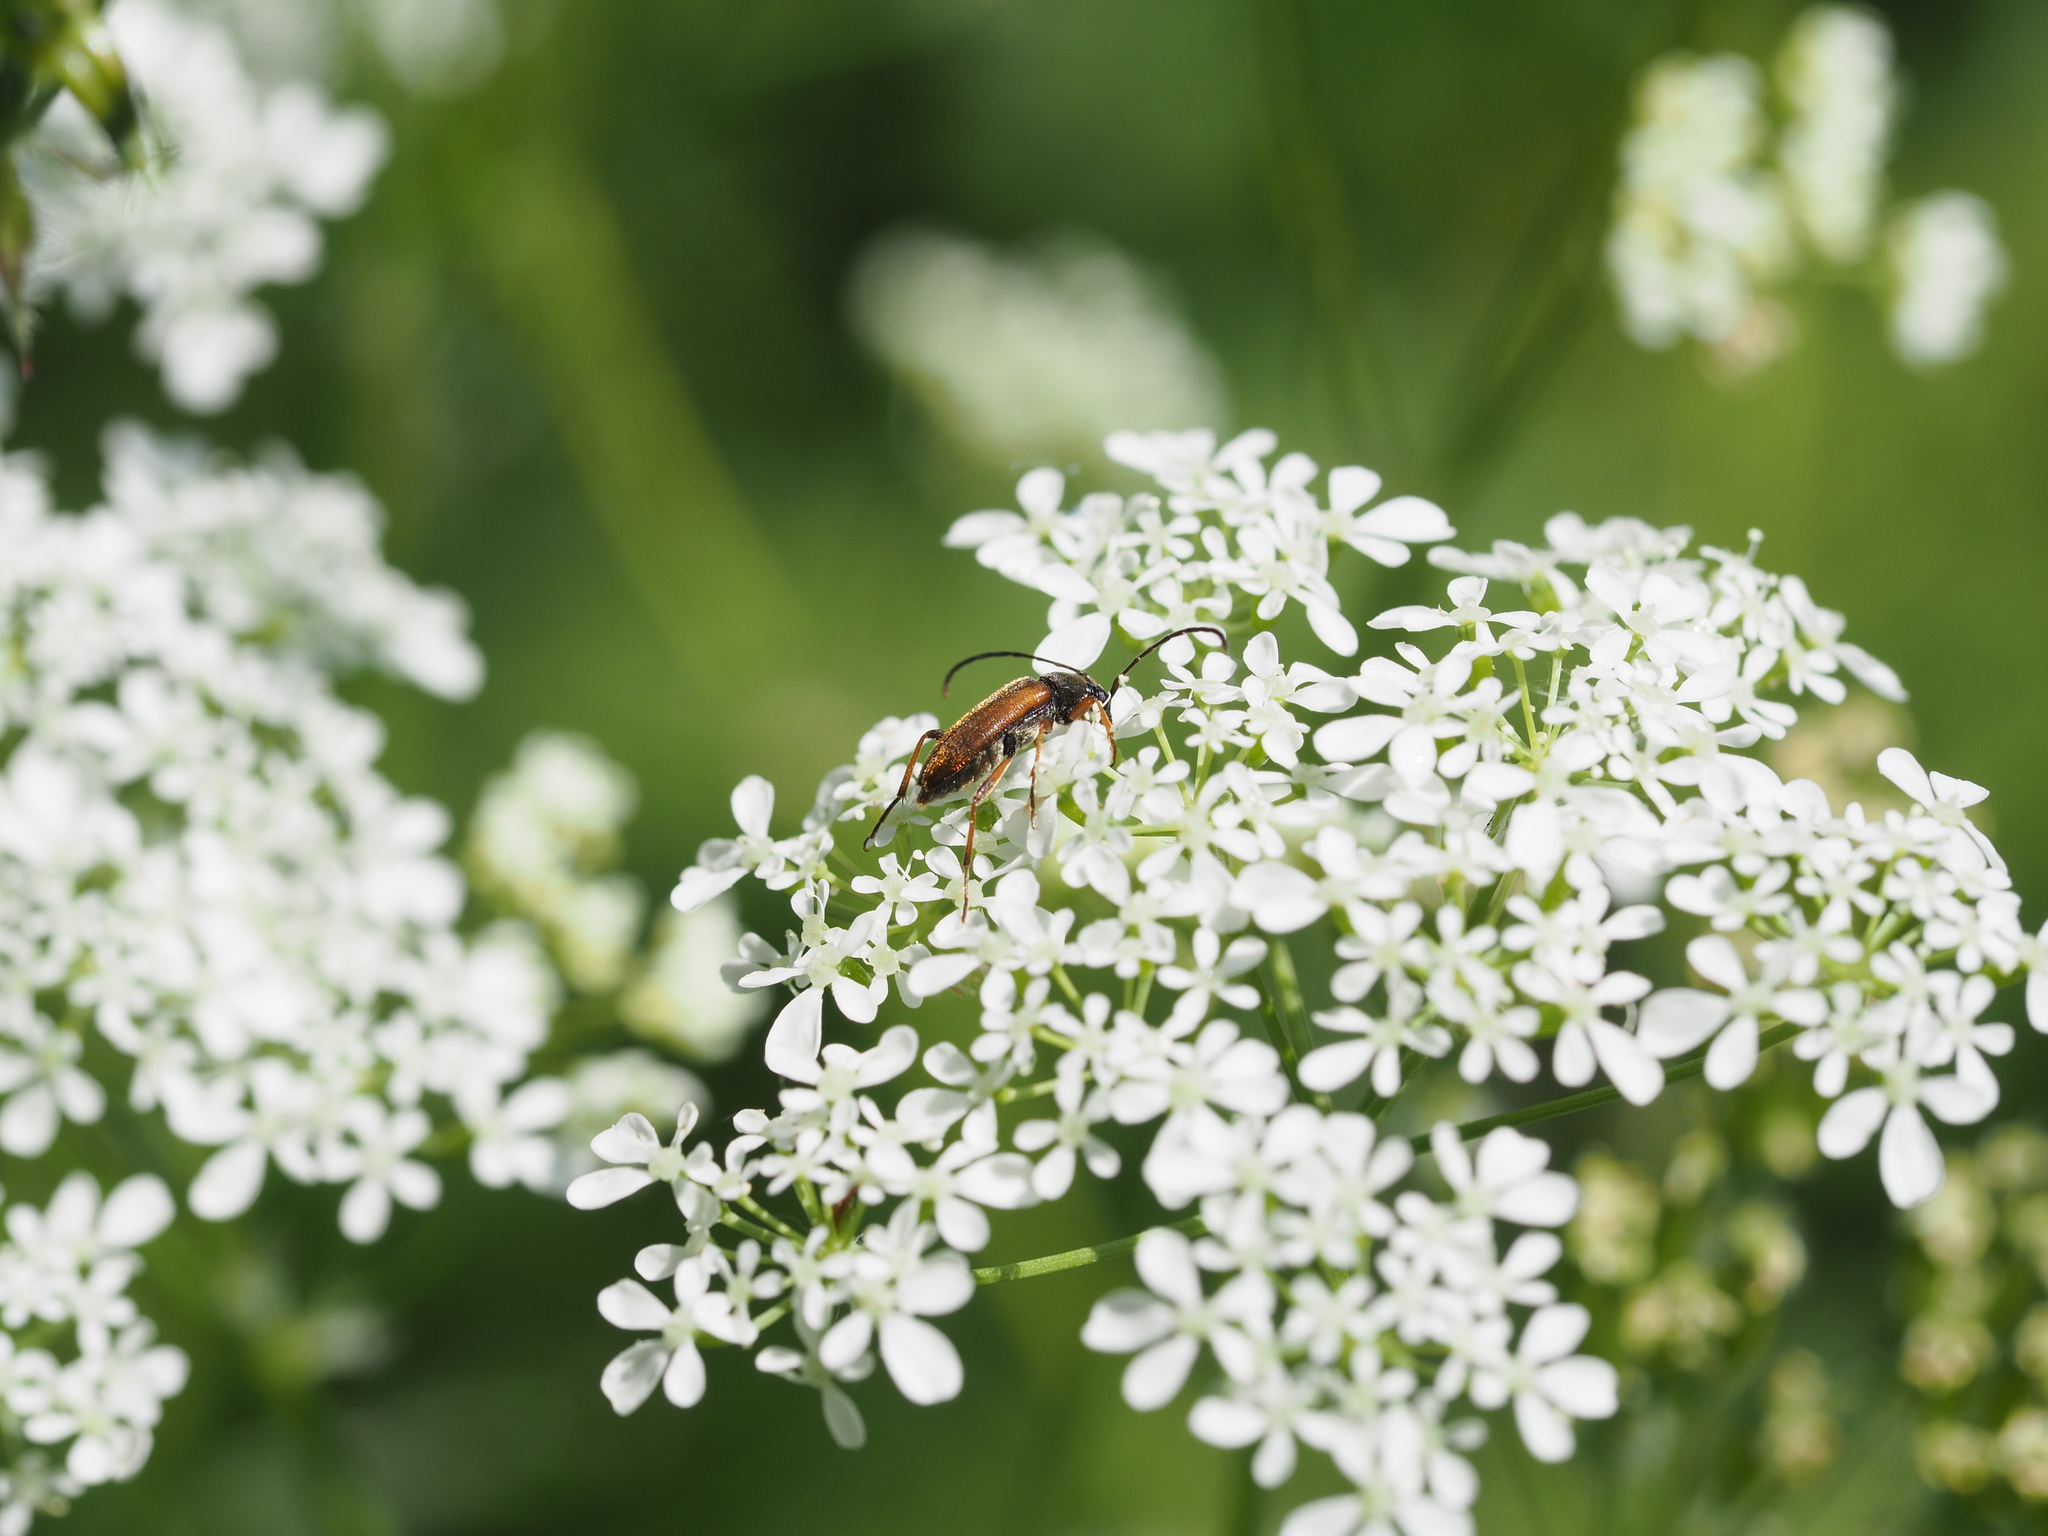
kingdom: Animalia
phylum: Arthropoda
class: Insecta
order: Coleoptera
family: Cerambycidae
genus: Alosterna
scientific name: Alosterna tabacicolor
